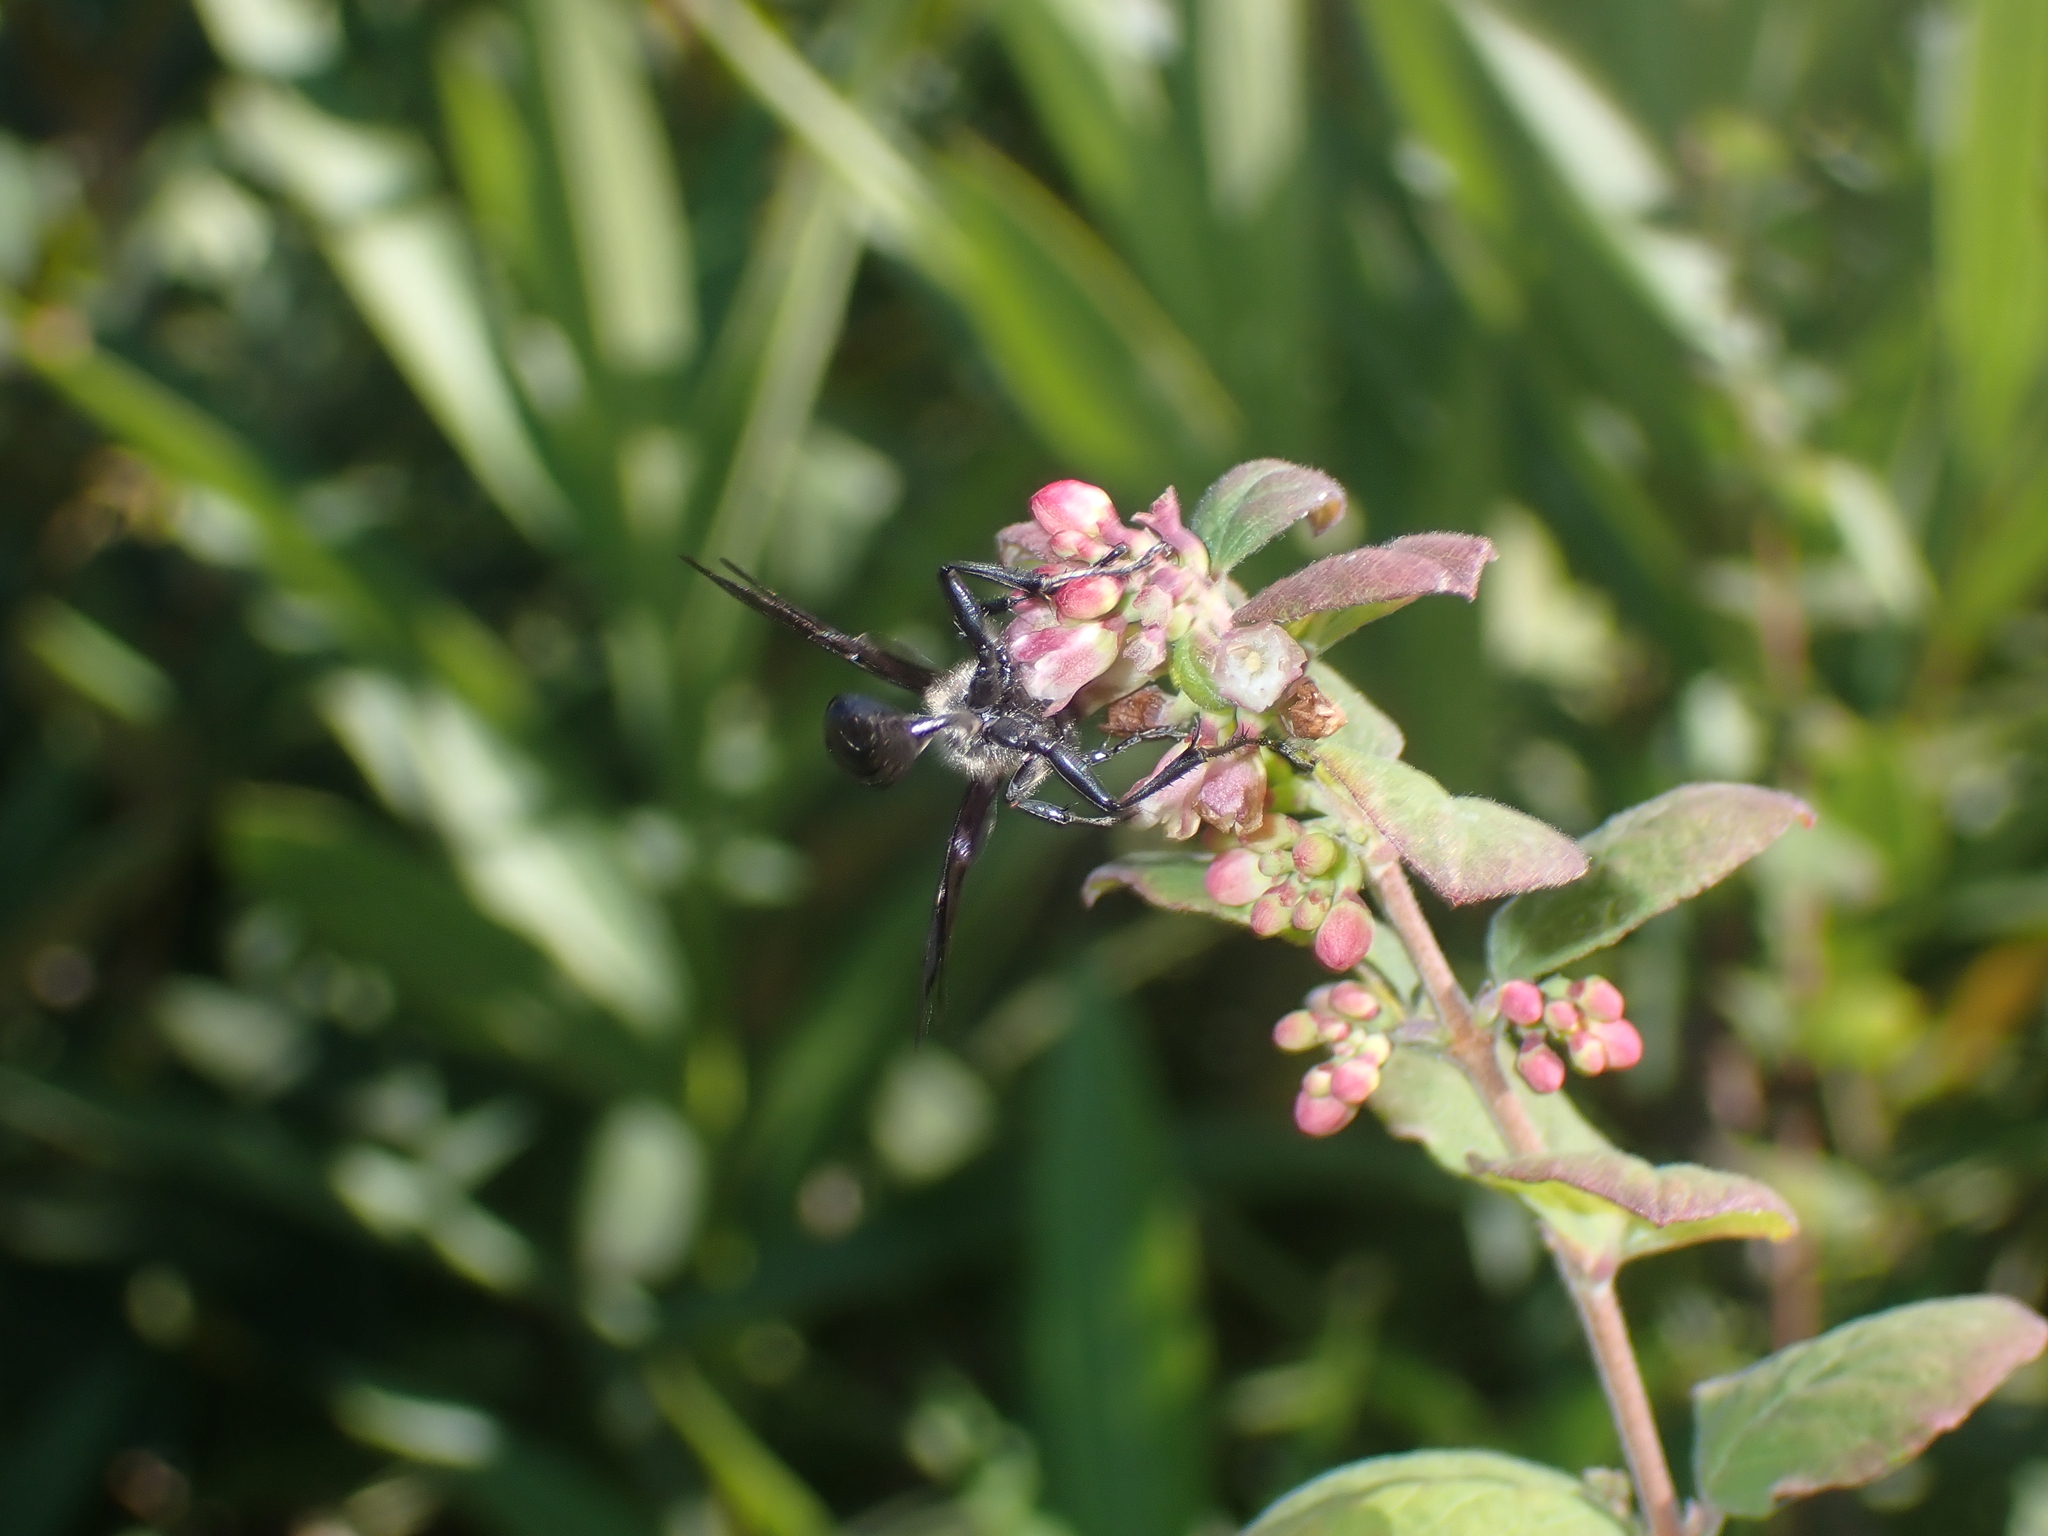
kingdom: Animalia
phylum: Arthropoda
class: Insecta
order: Hymenoptera
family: Sphecidae
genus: Isodontia
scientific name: Isodontia mexicana
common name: Mud dauber
